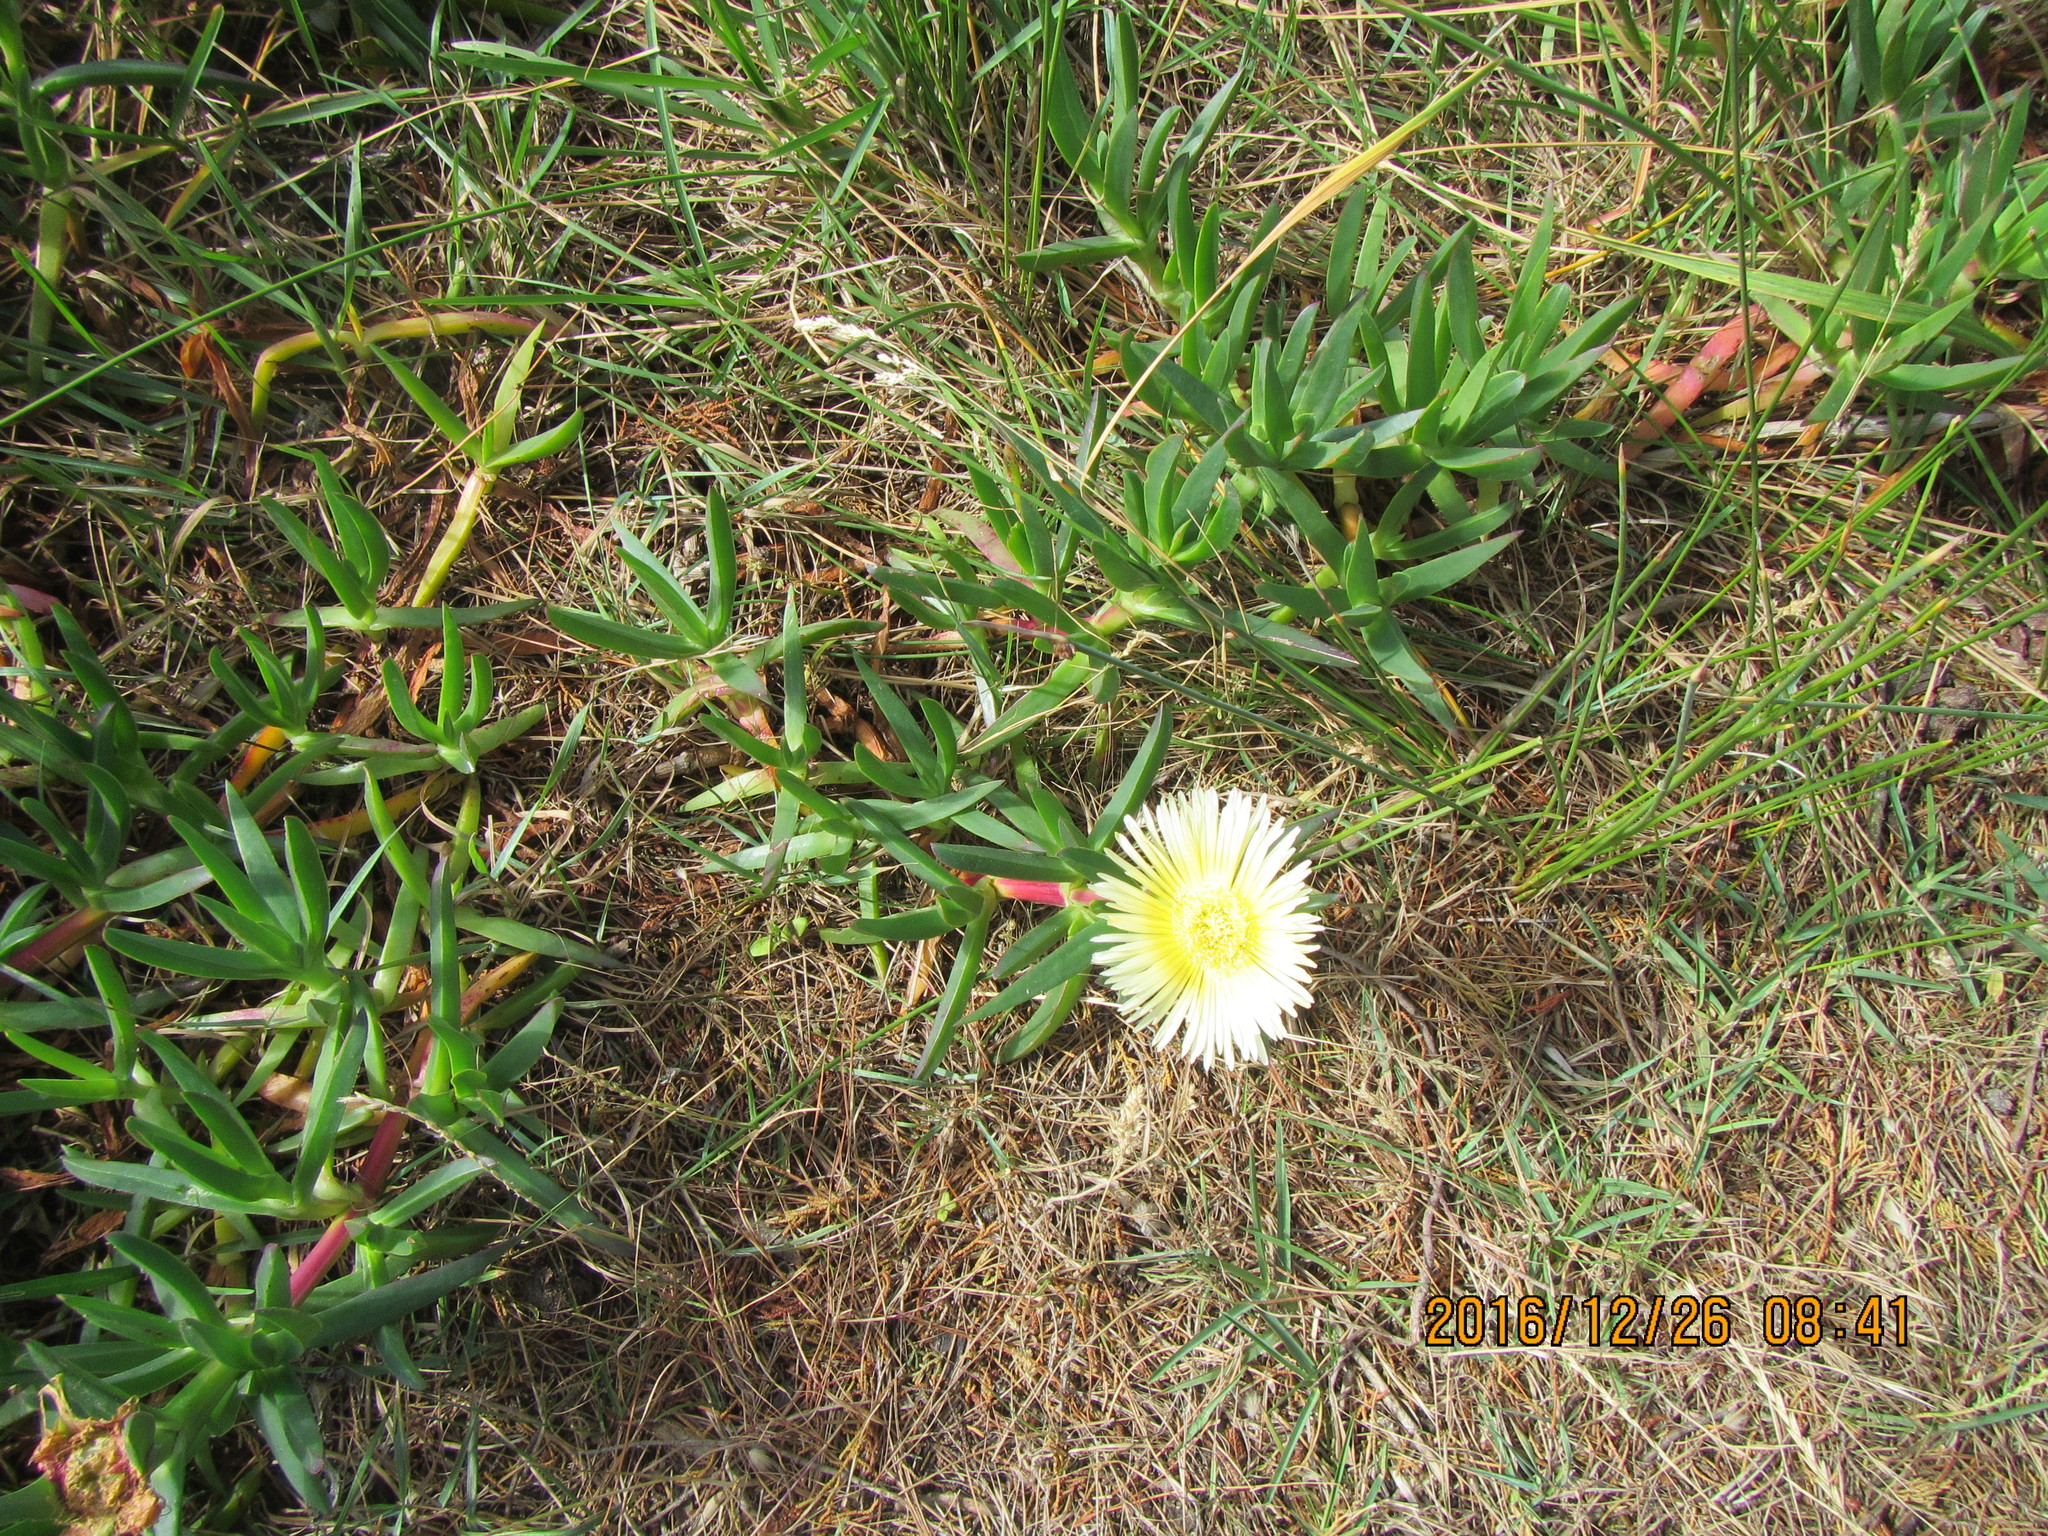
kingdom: Plantae
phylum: Tracheophyta
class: Magnoliopsida
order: Caryophyllales
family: Aizoaceae
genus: Carpobrotus
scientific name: Carpobrotus edulis
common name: Hottentot-fig
